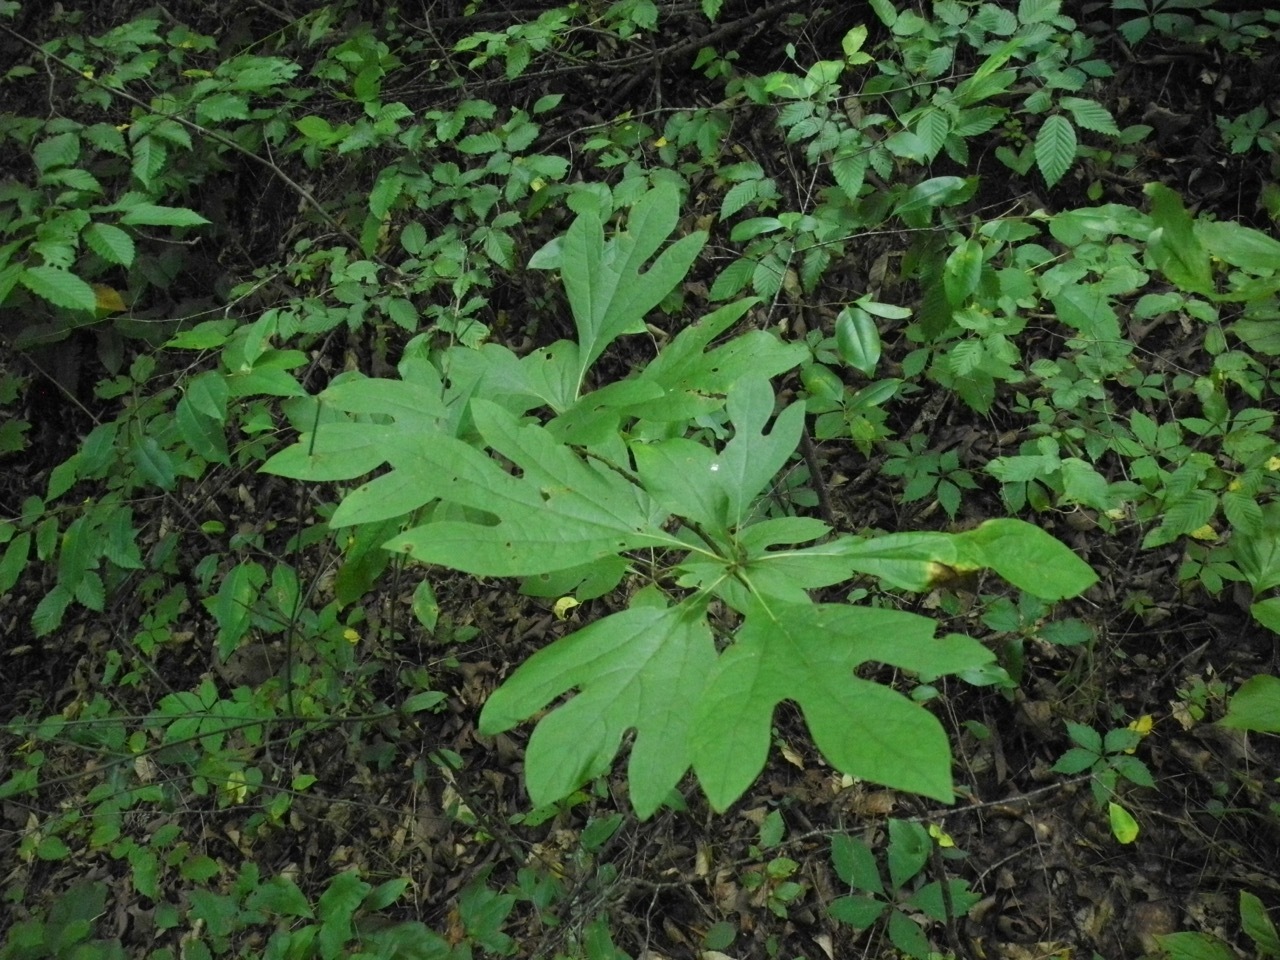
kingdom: Plantae
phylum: Tracheophyta
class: Magnoliopsida
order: Laurales
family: Lauraceae
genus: Sassafras
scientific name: Sassafras albidum
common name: Sassafras
